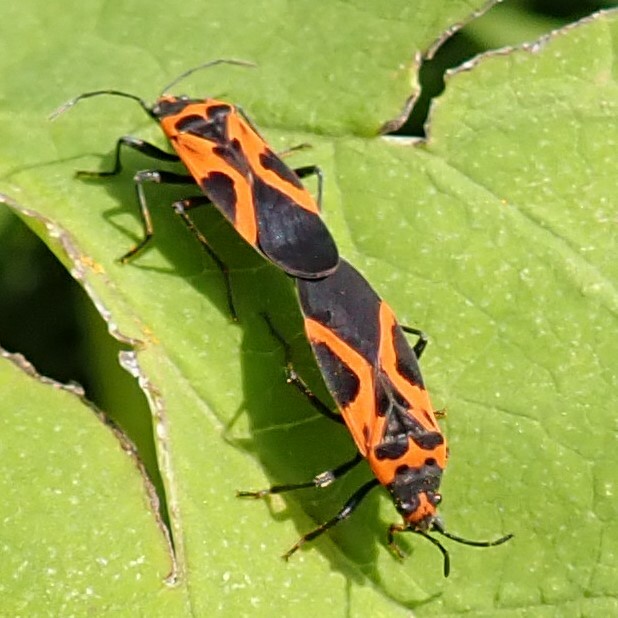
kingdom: Animalia
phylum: Arthropoda
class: Insecta
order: Hemiptera
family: Lygaeidae
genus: Lygaeus
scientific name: Lygaeus turcicus
